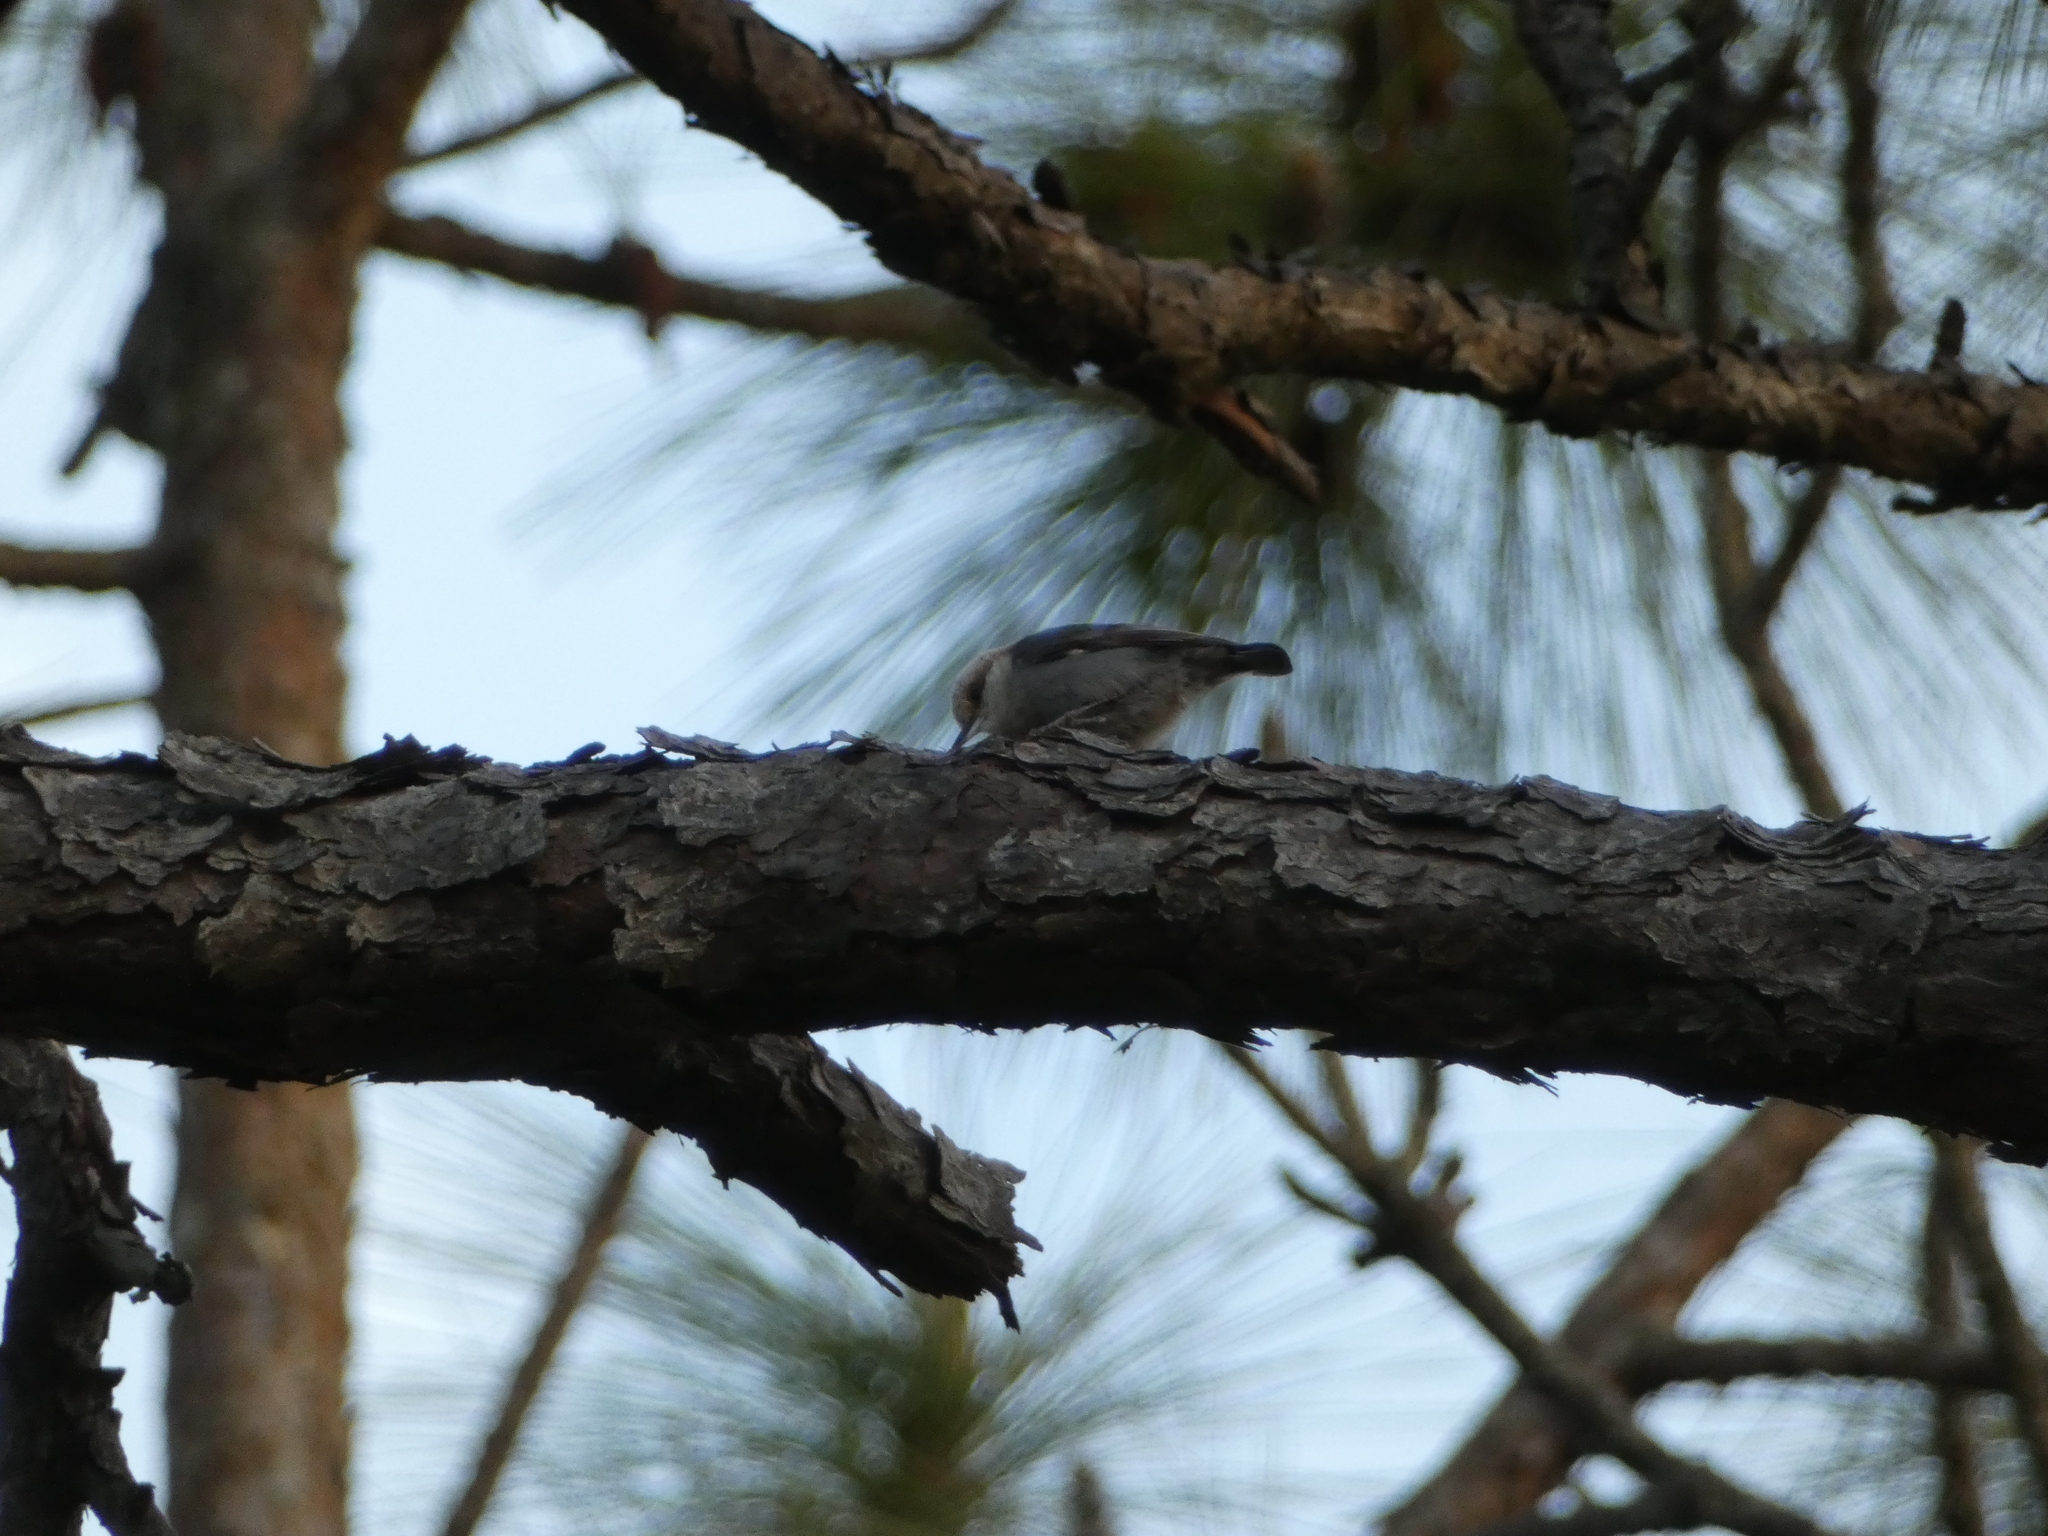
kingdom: Animalia
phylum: Chordata
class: Aves
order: Passeriformes
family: Sittidae
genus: Sitta
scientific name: Sitta pusilla
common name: Brown-headed nuthatch
